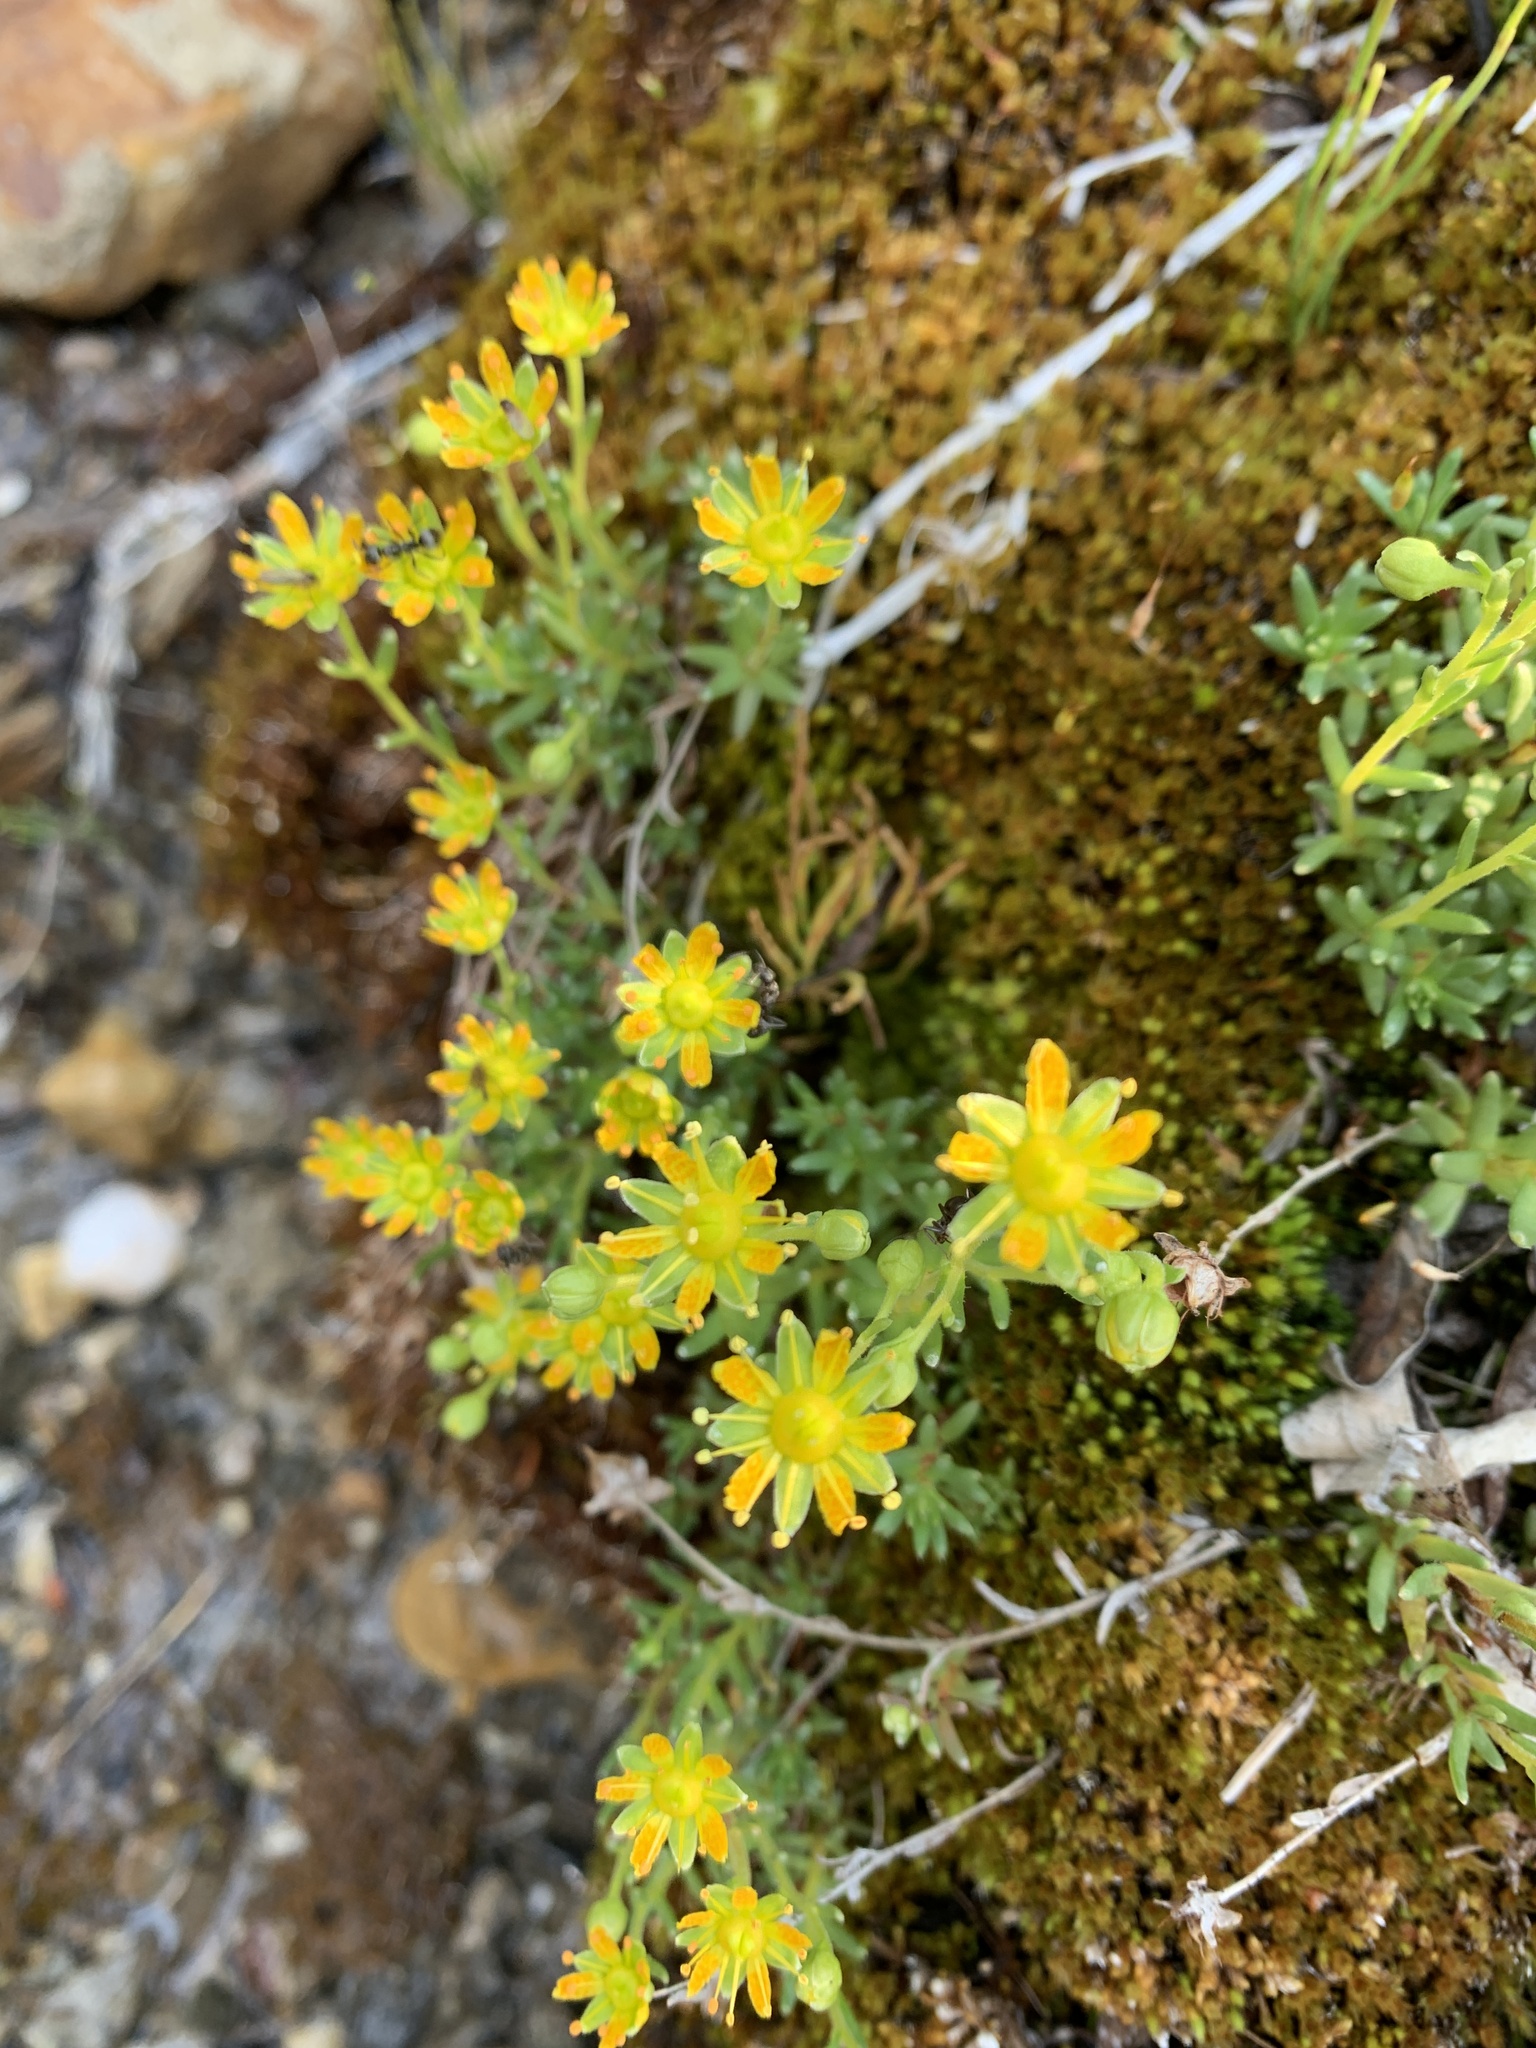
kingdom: Plantae
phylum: Tracheophyta
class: Magnoliopsida
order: Saxifragales
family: Saxifragaceae
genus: Saxifraga
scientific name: Saxifraga aizoides
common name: Yellow mountain saxifrage
